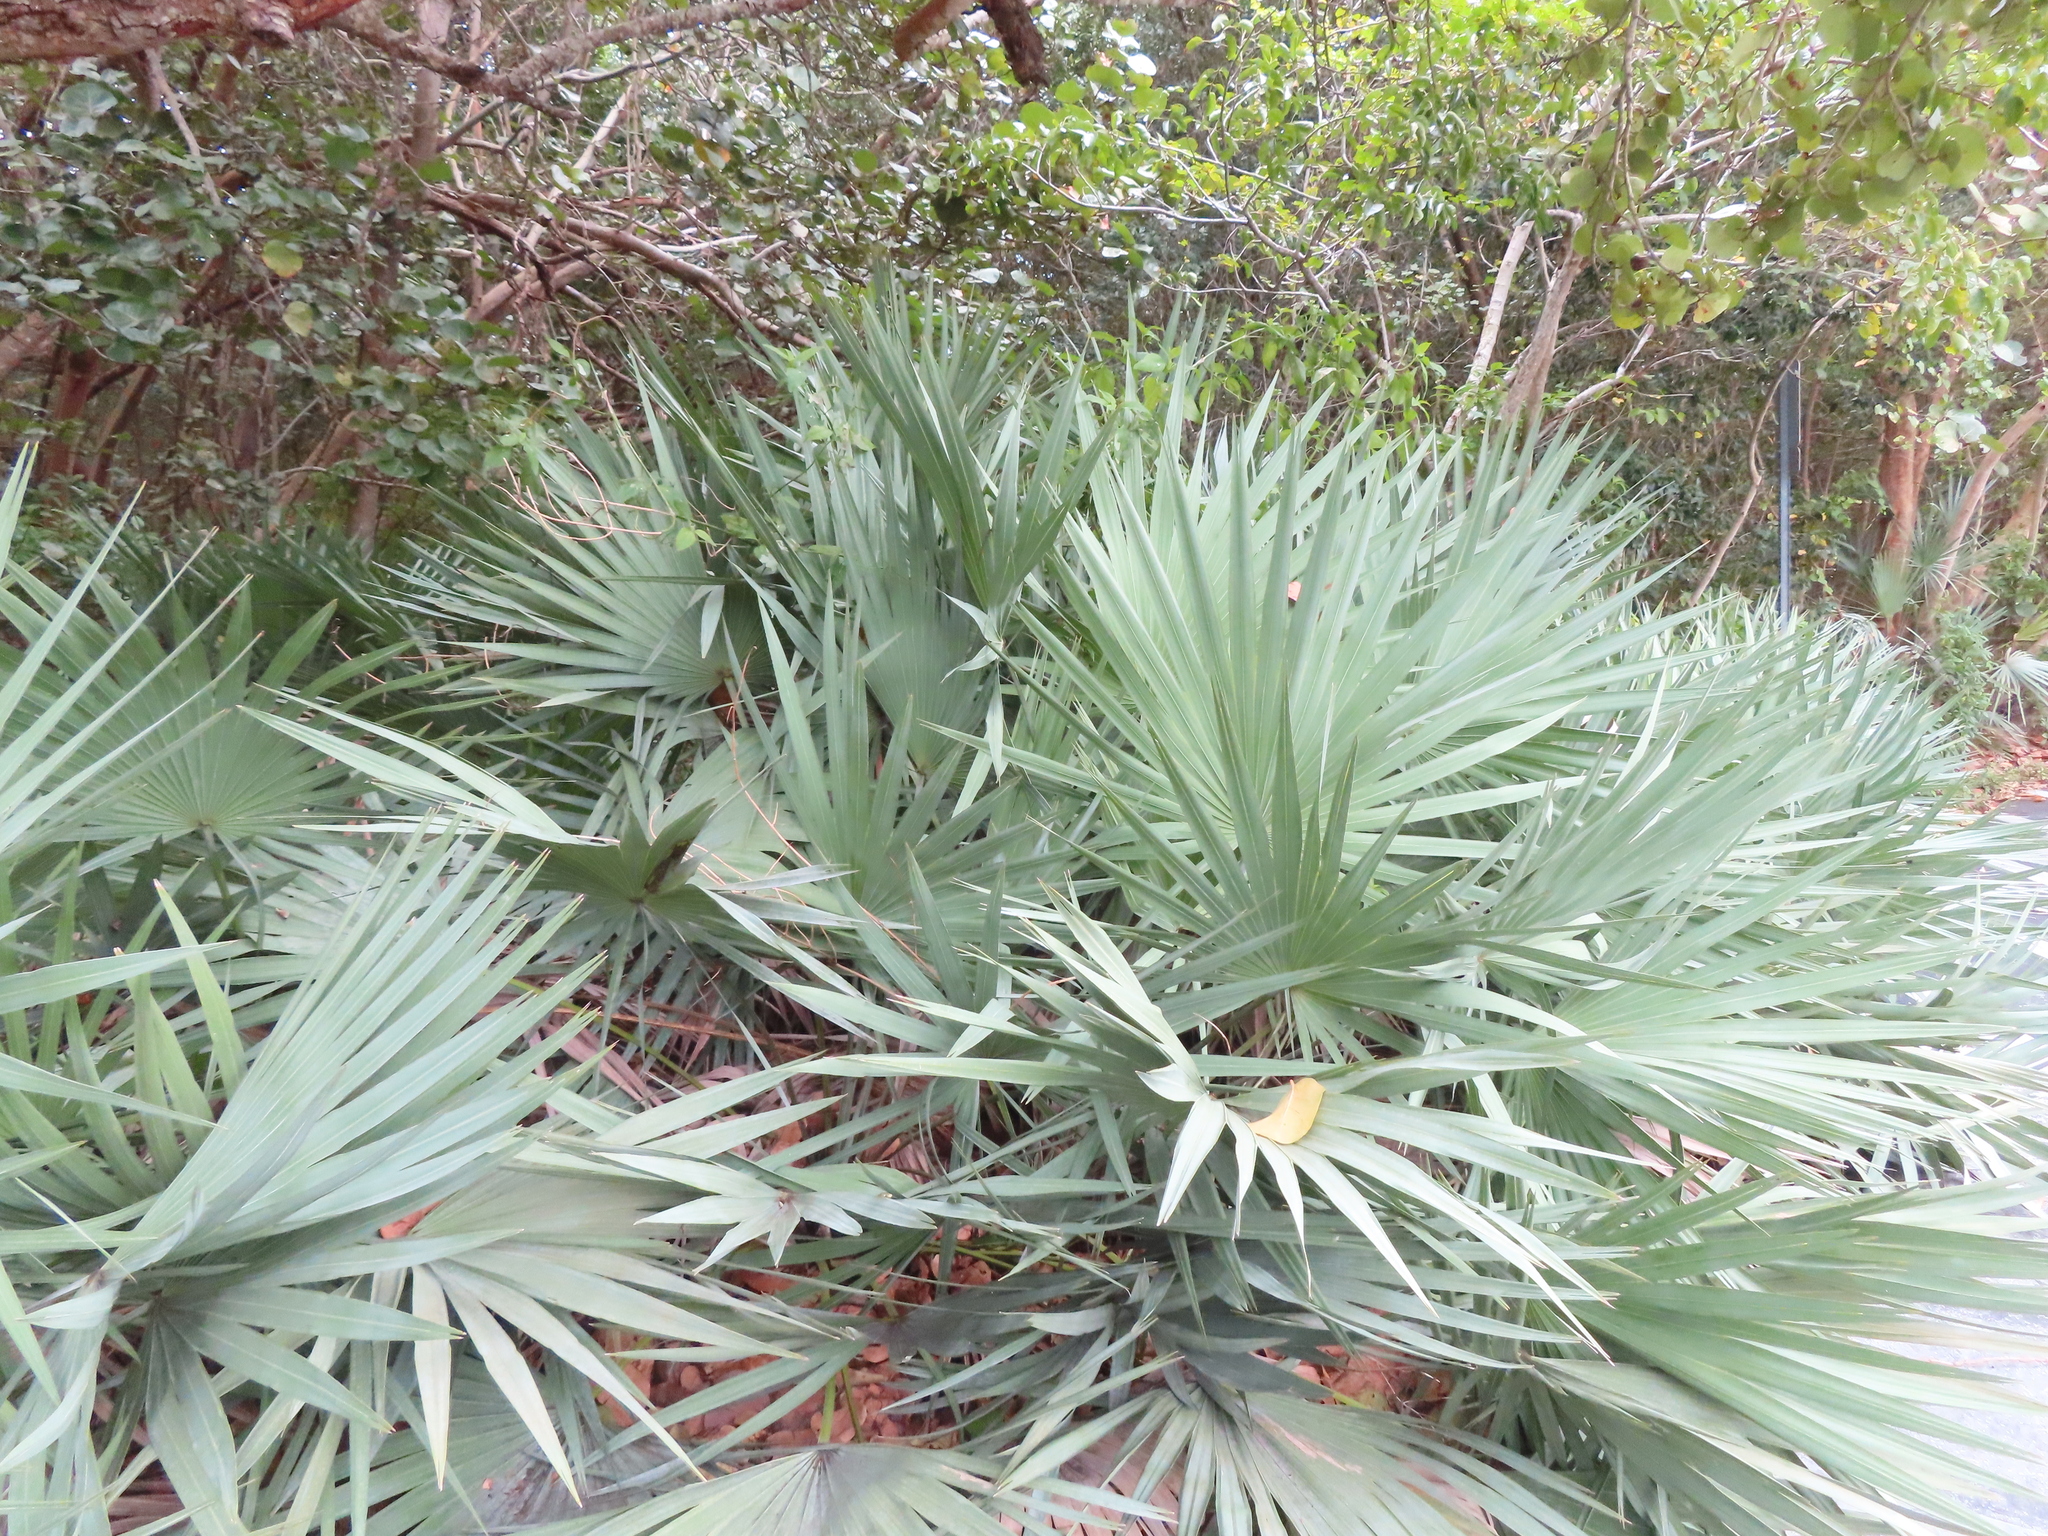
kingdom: Plantae
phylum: Tracheophyta
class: Liliopsida
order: Arecales
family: Arecaceae
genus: Serenoa
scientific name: Serenoa repens
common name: Saw-palmetto
